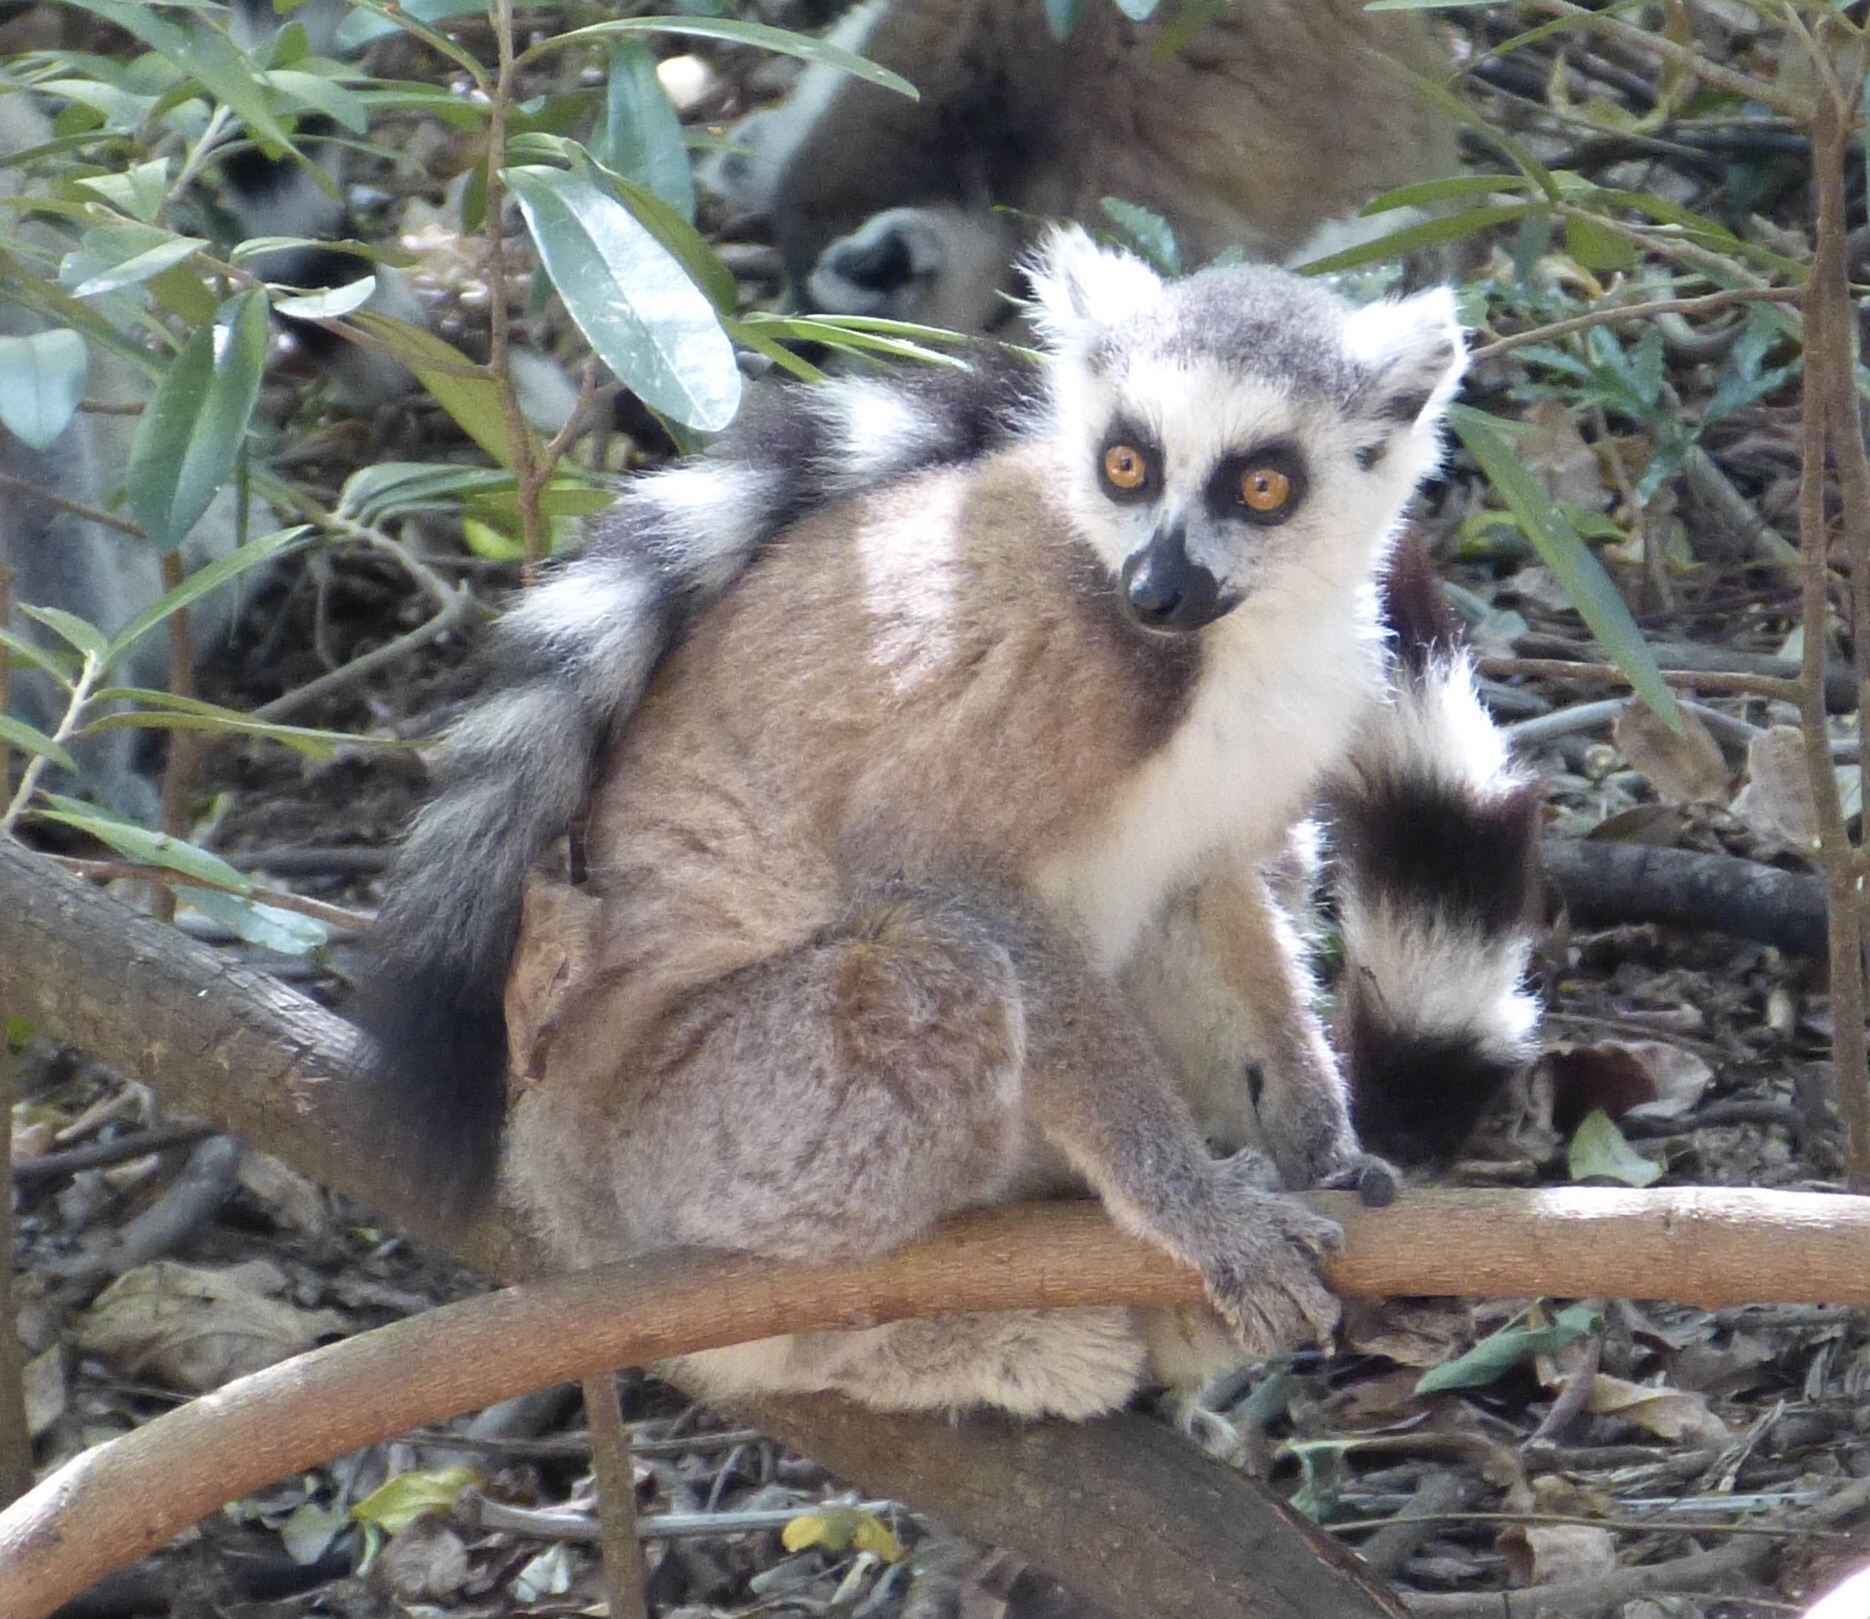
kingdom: Animalia
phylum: Chordata
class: Mammalia
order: Primates
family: Lemuridae
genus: Lemur
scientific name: Lemur catta
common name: Ring-tailed lemur
